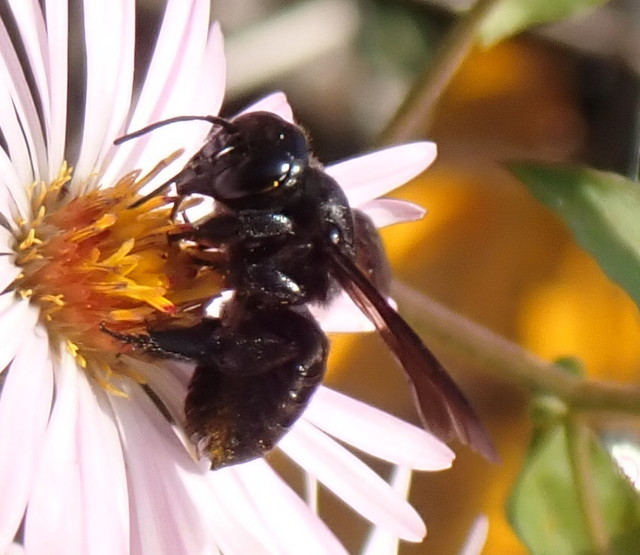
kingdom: Animalia
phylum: Arthropoda
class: Insecta
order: Hymenoptera
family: Megachilidae
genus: Megachile
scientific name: Megachile xylocopoides
